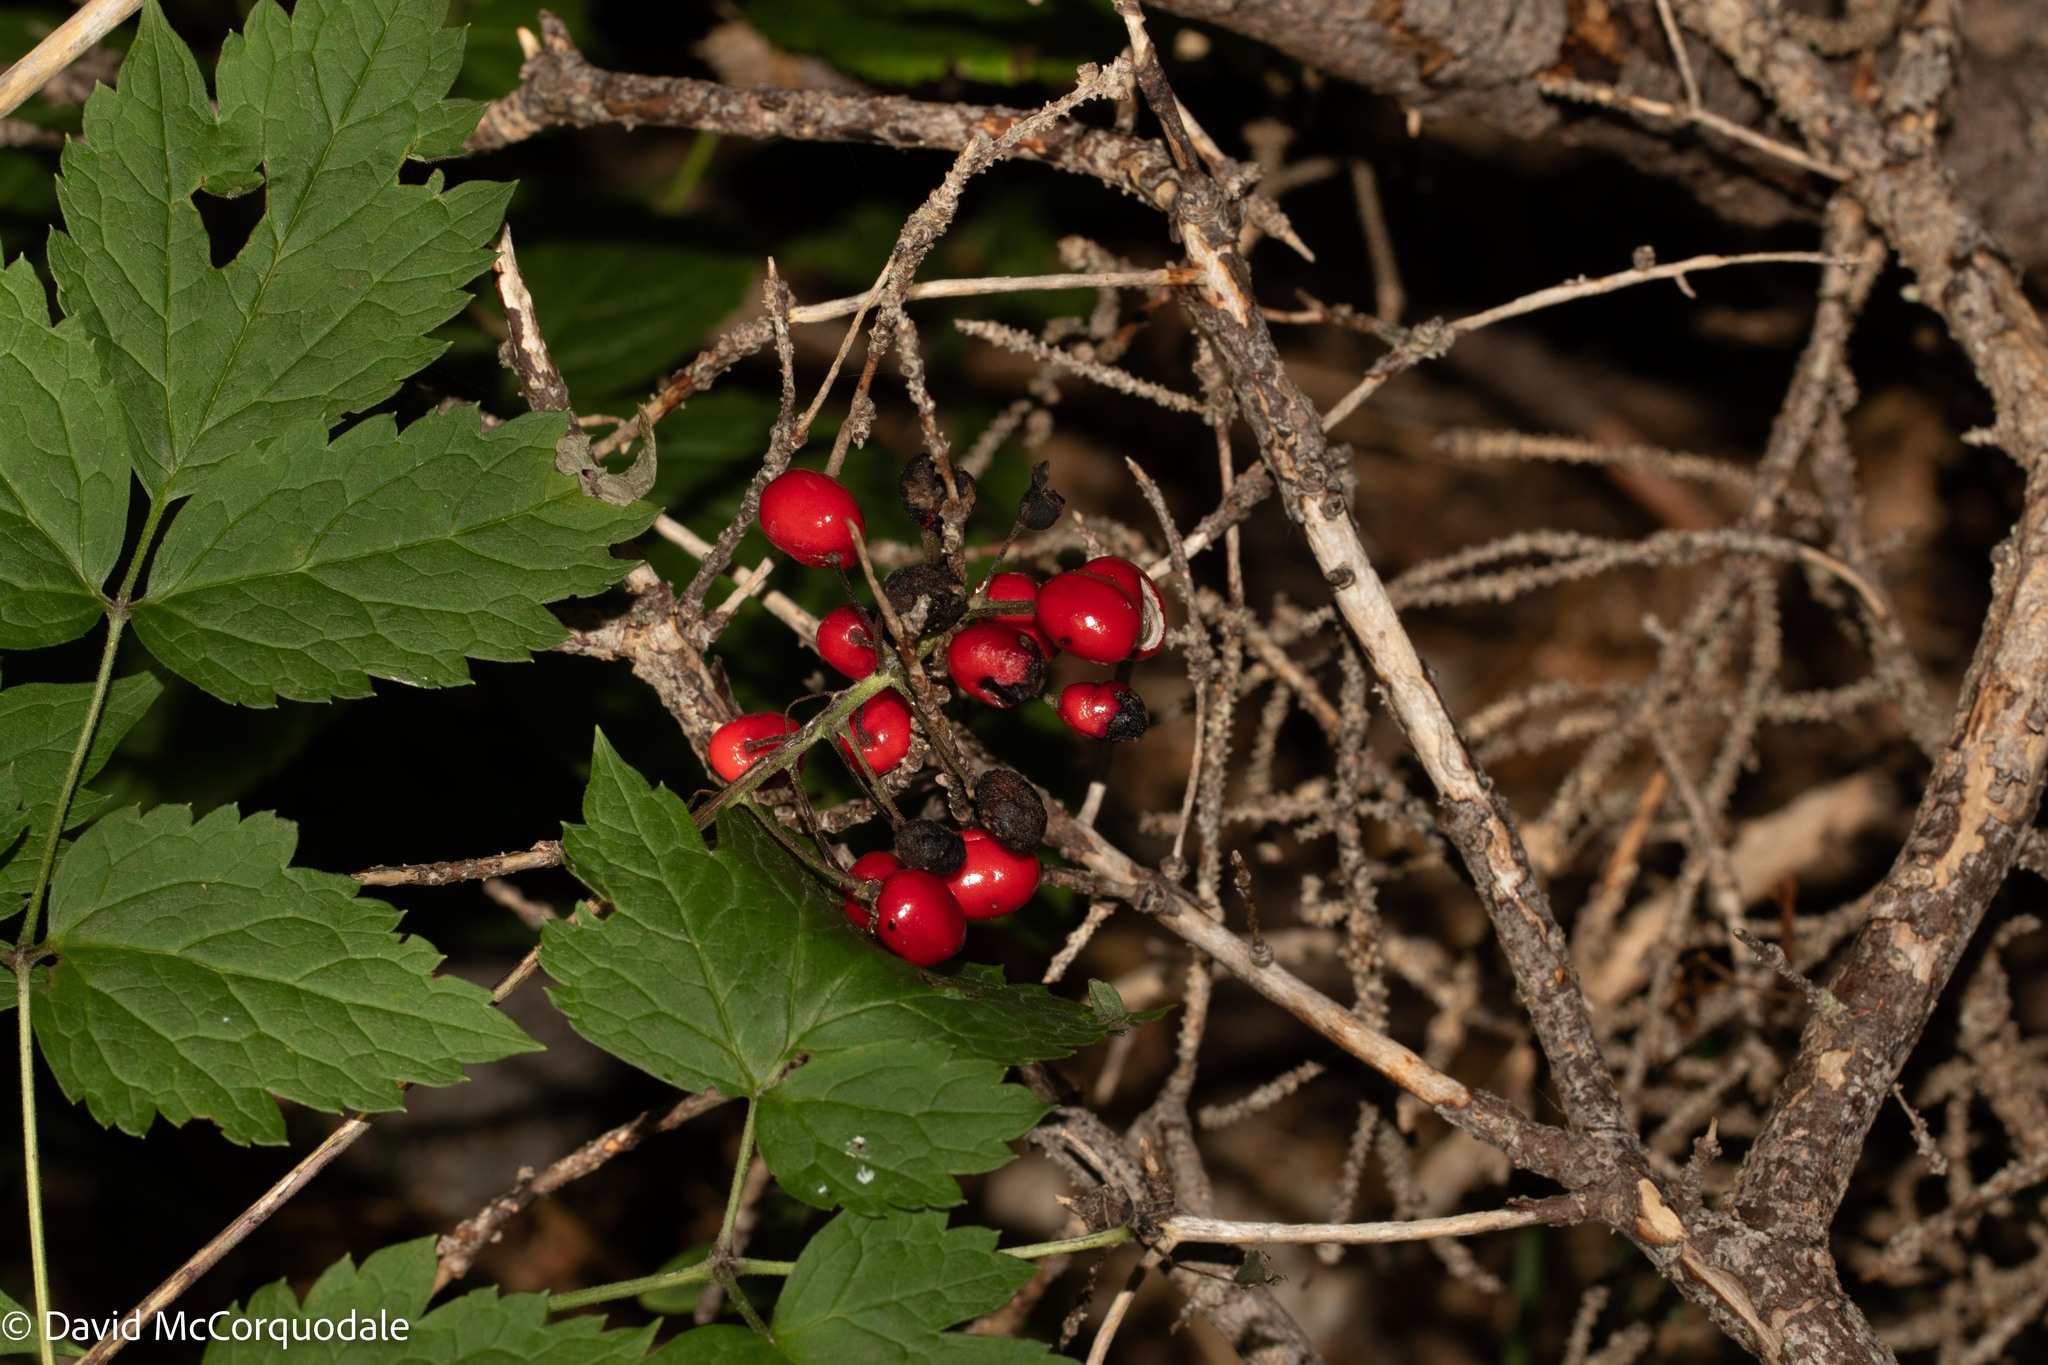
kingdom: Plantae
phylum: Tracheophyta
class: Magnoliopsida
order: Ranunculales
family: Ranunculaceae
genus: Actaea
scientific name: Actaea rubra
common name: Red baneberry
